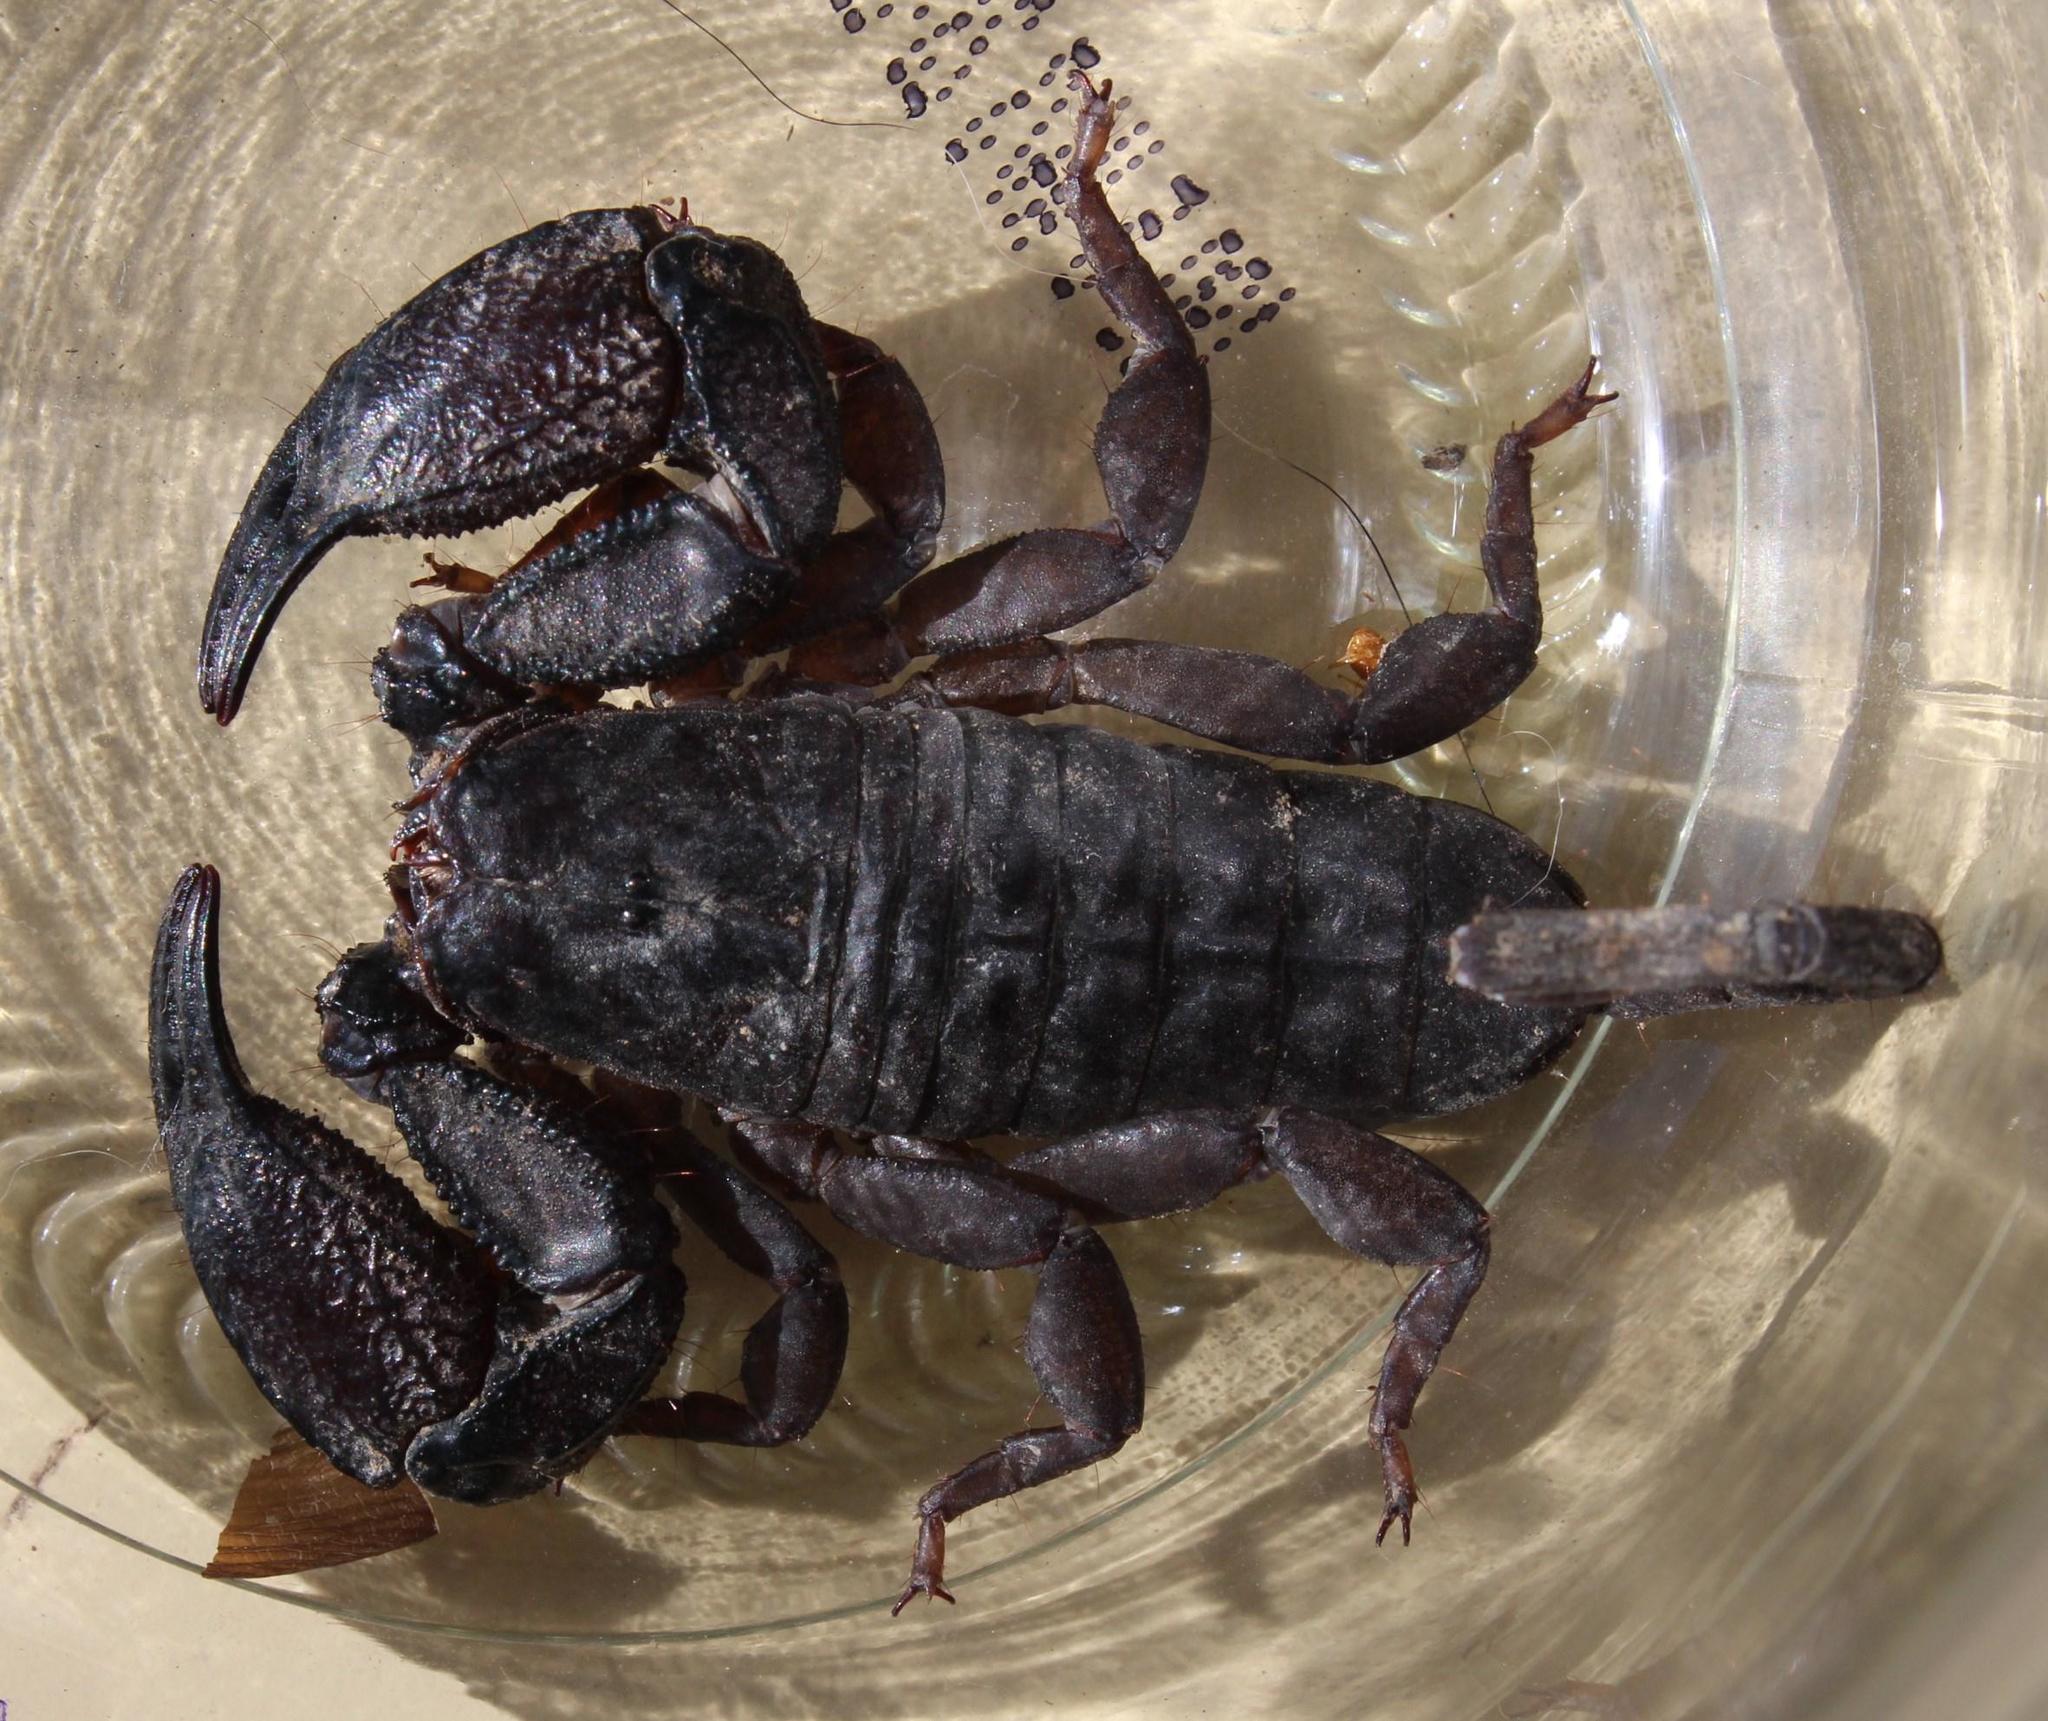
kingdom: Animalia
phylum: Arthropoda
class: Arachnida
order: Scorpiones
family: Hormuridae
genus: Opisthacanthus
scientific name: Opisthacanthus capensis
